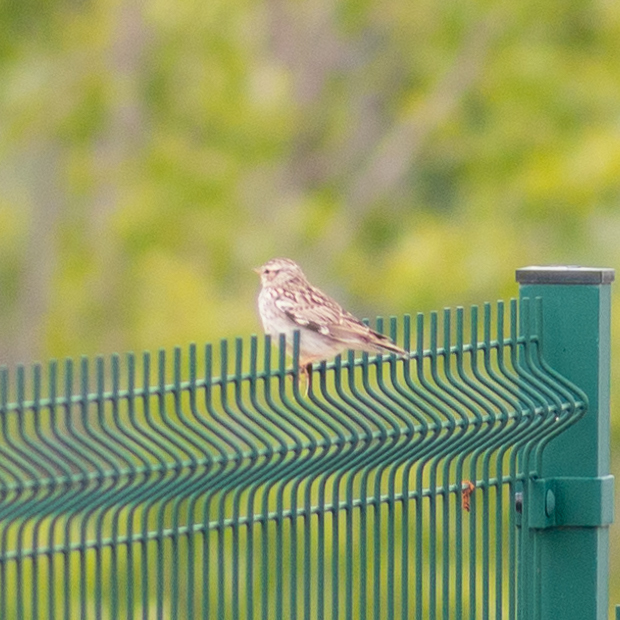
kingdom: Animalia
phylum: Chordata
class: Aves
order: Passeriformes
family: Alaudidae
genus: Lullula
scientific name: Lullula arborea
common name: Woodlark
